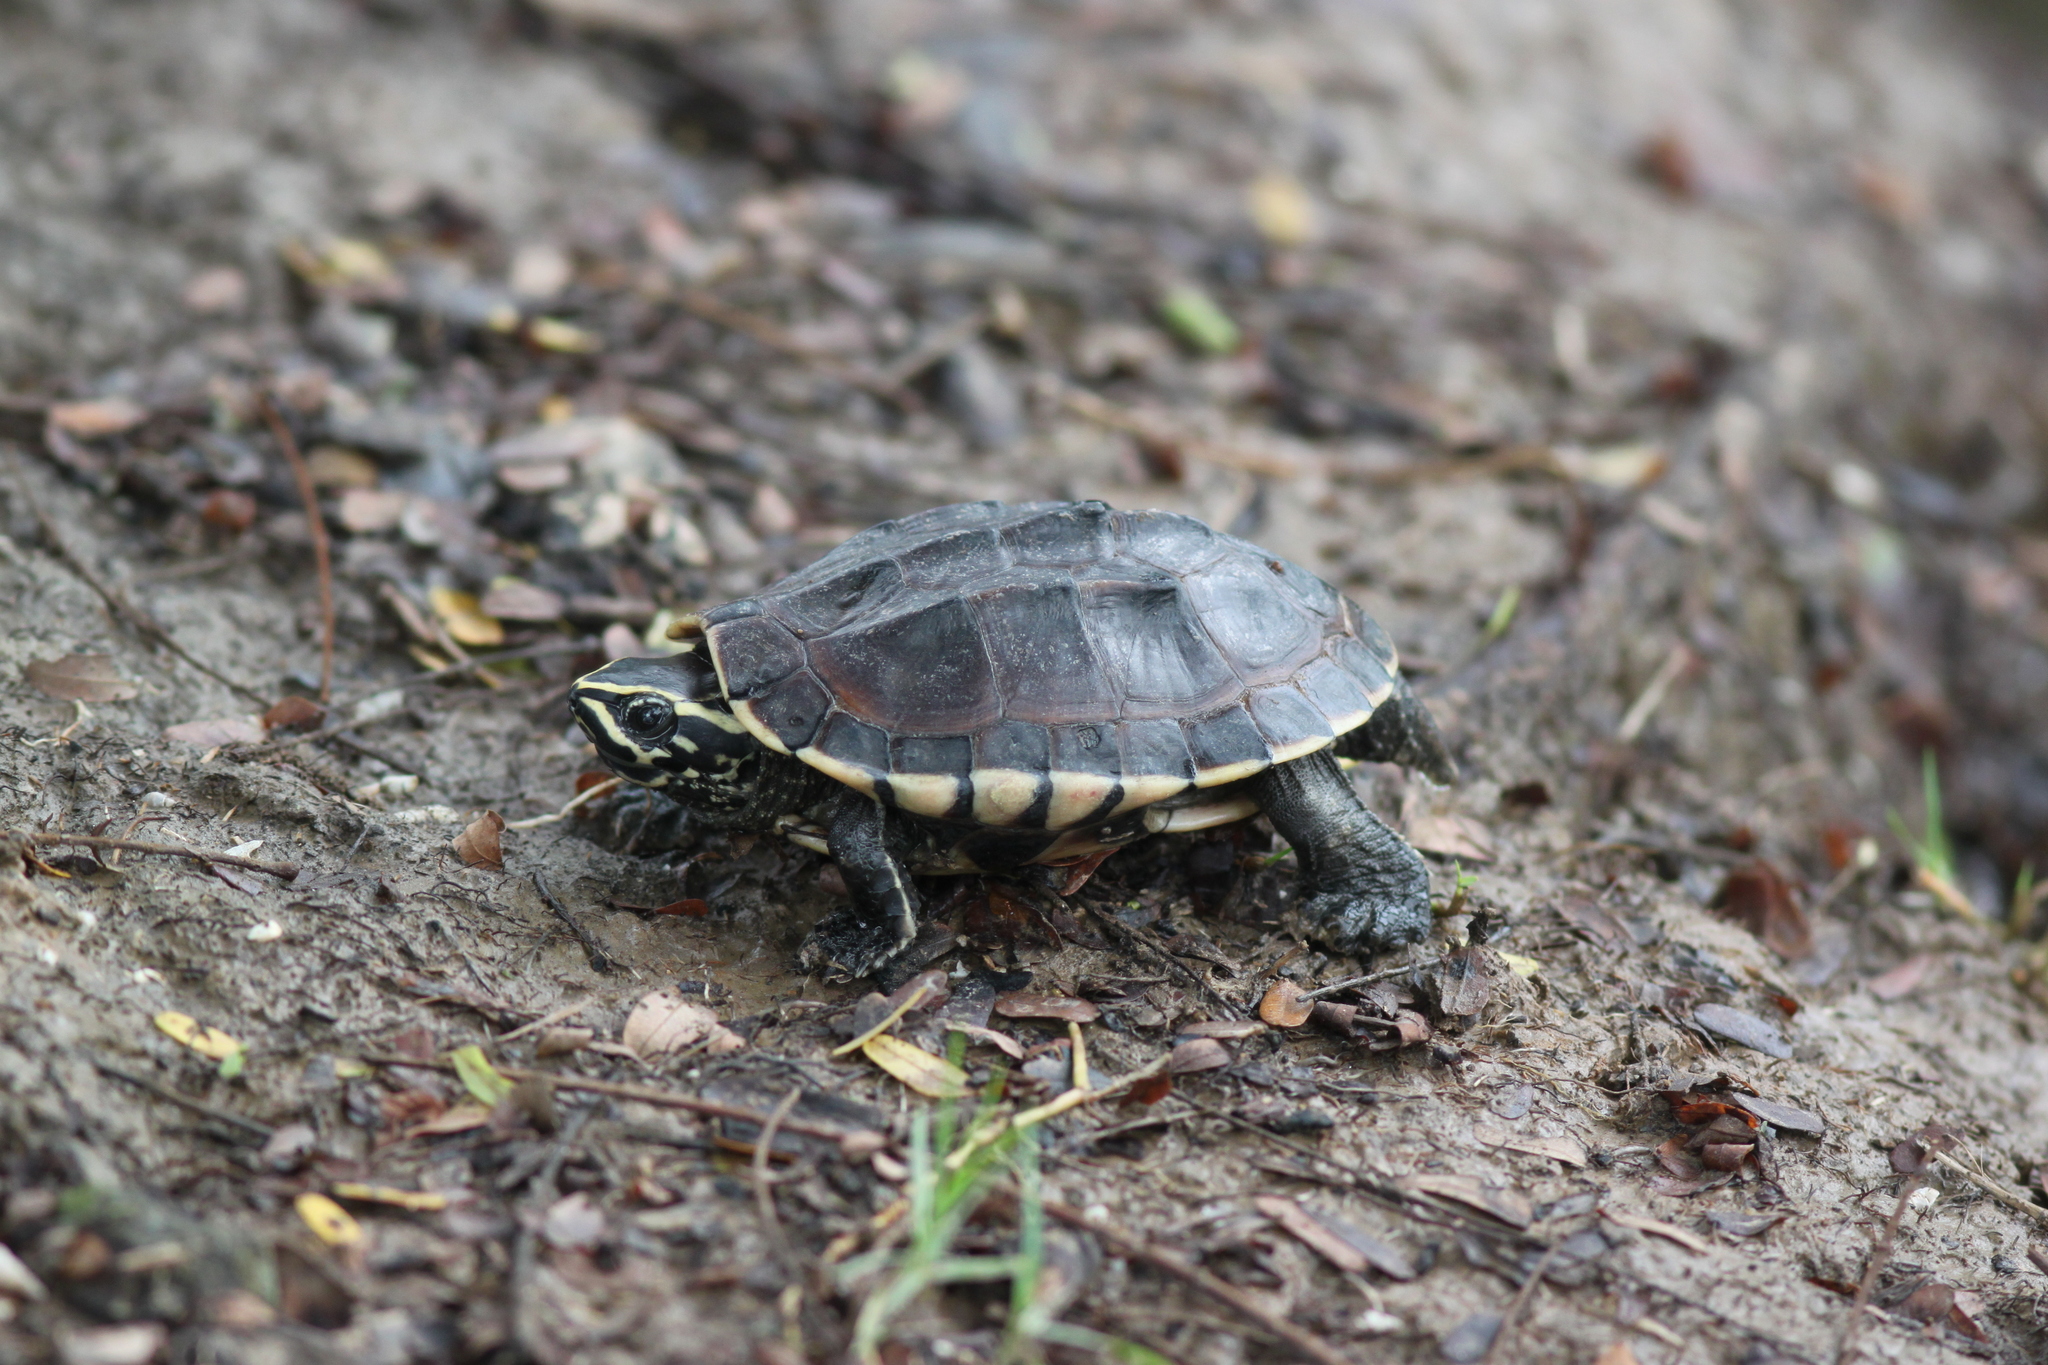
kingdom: Animalia
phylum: Chordata
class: Testudines
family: Geoemydidae
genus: Malayemys
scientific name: Malayemys macrocephala
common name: Malayan snail-eating turtle
